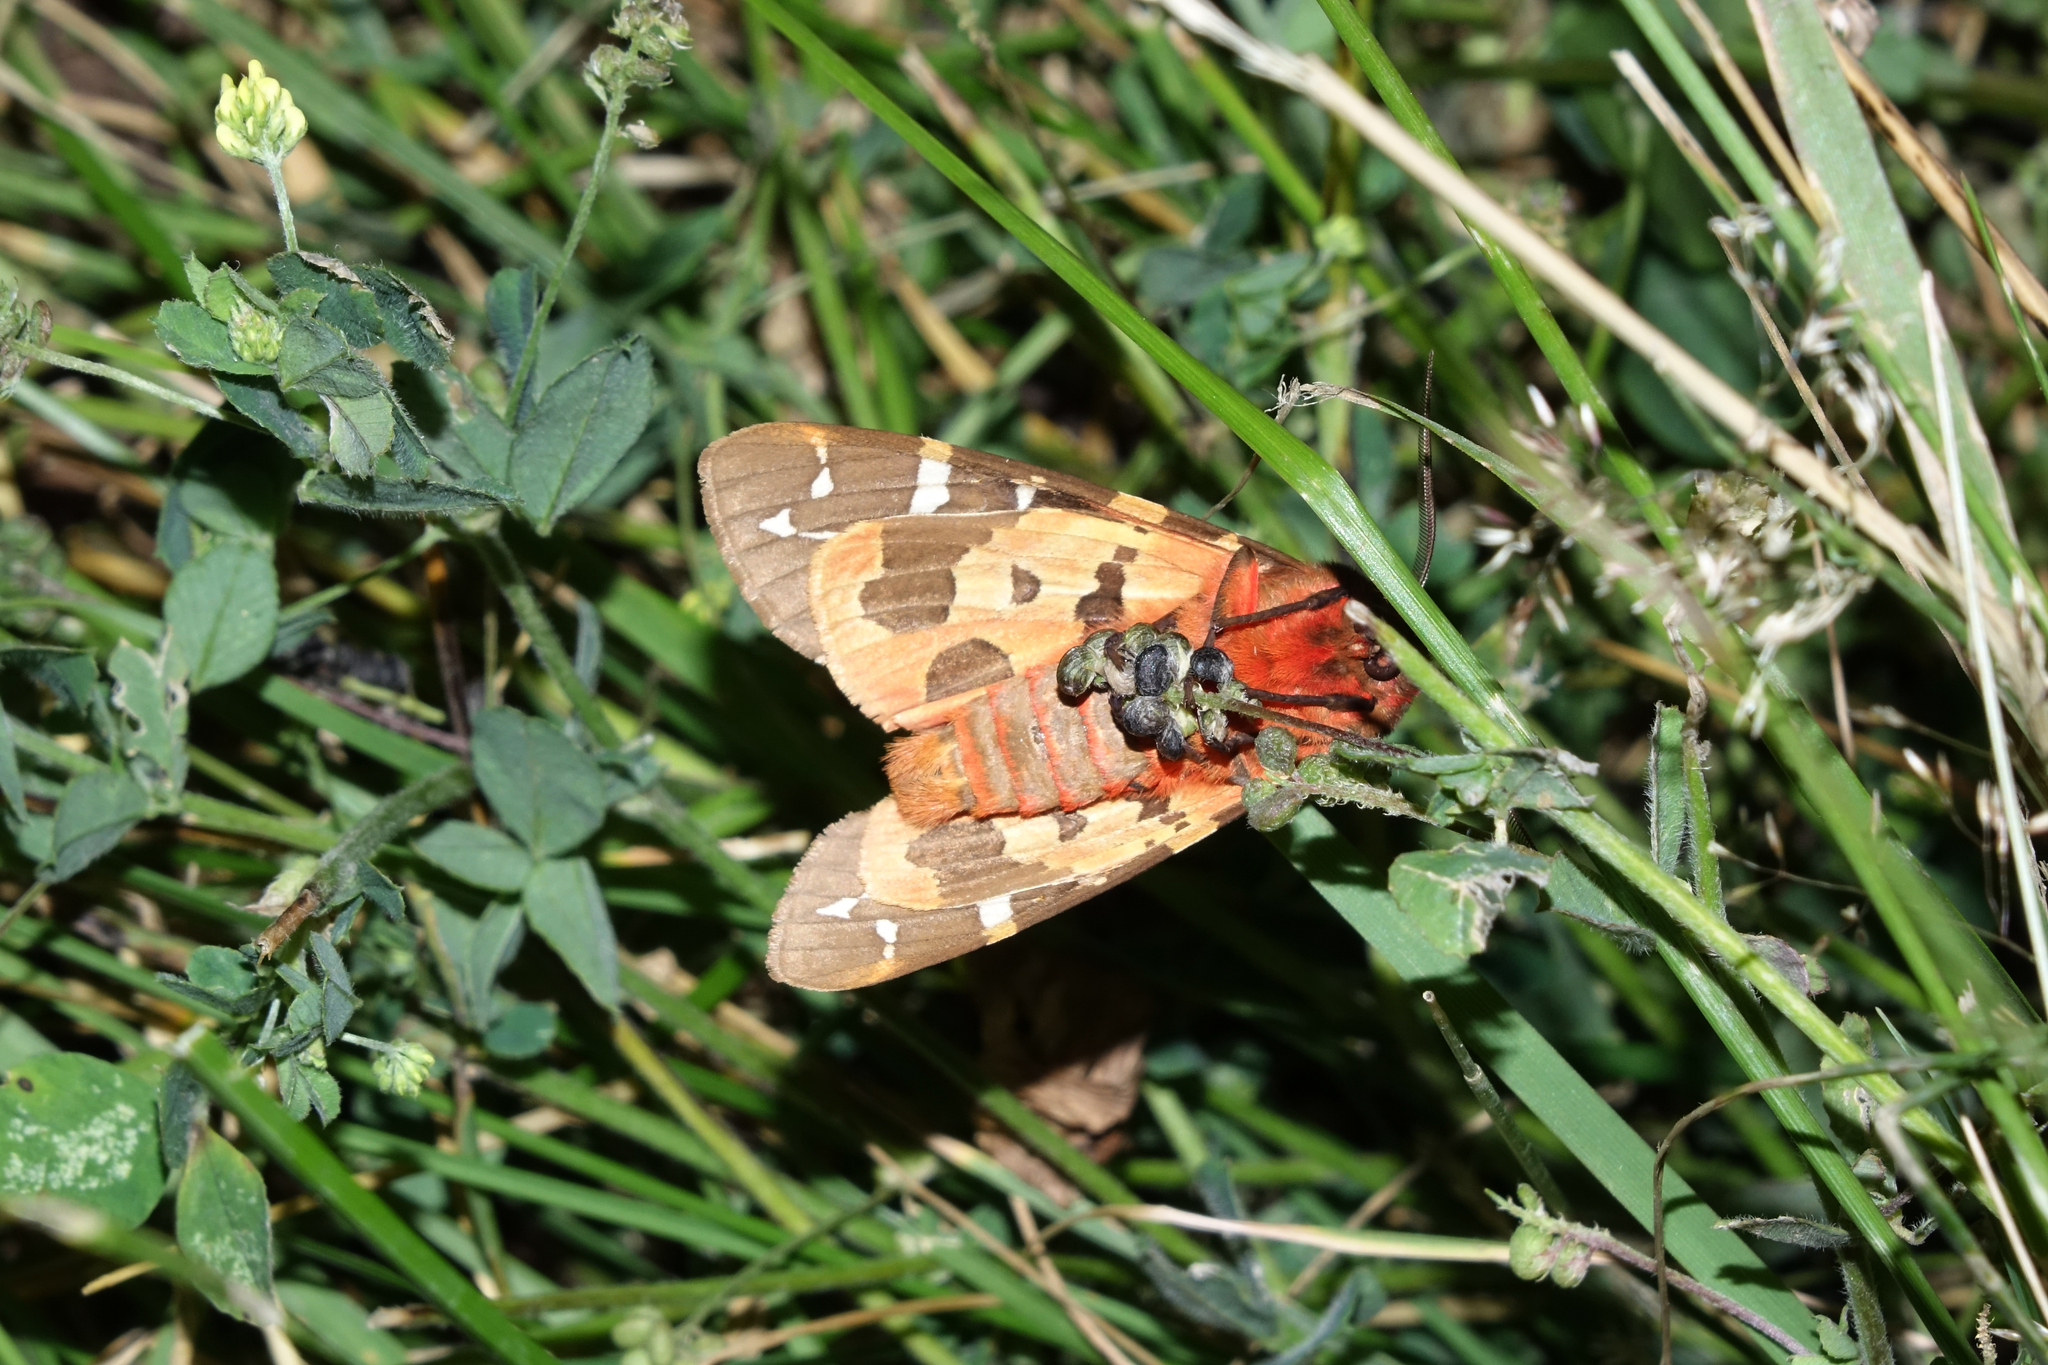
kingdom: Animalia
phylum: Arthropoda
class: Insecta
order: Lepidoptera
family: Erebidae
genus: Arctia
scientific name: Arctia caja
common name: Garden tiger
